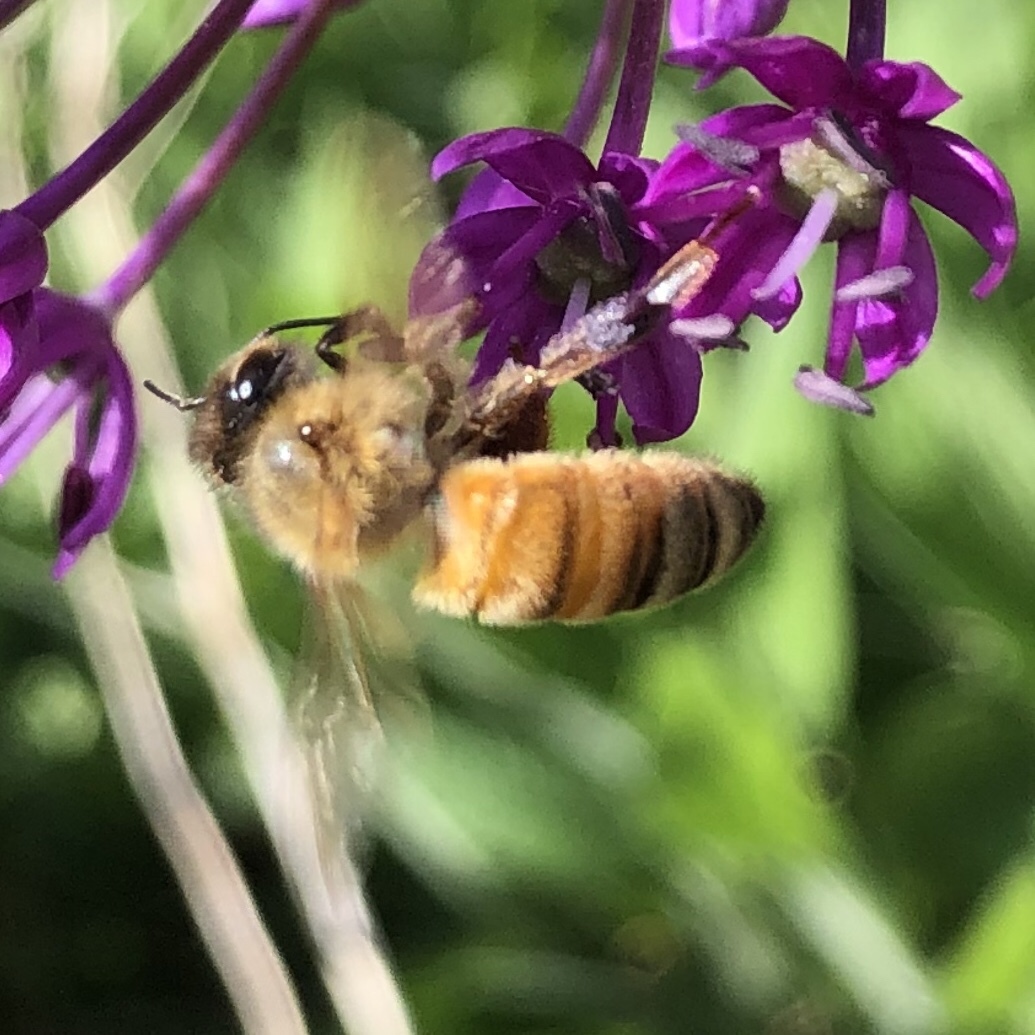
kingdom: Animalia
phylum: Arthropoda
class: Insecta
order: Hymenoptera
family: Apidae
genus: Apis
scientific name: Apis mellifera
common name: Honey bee
